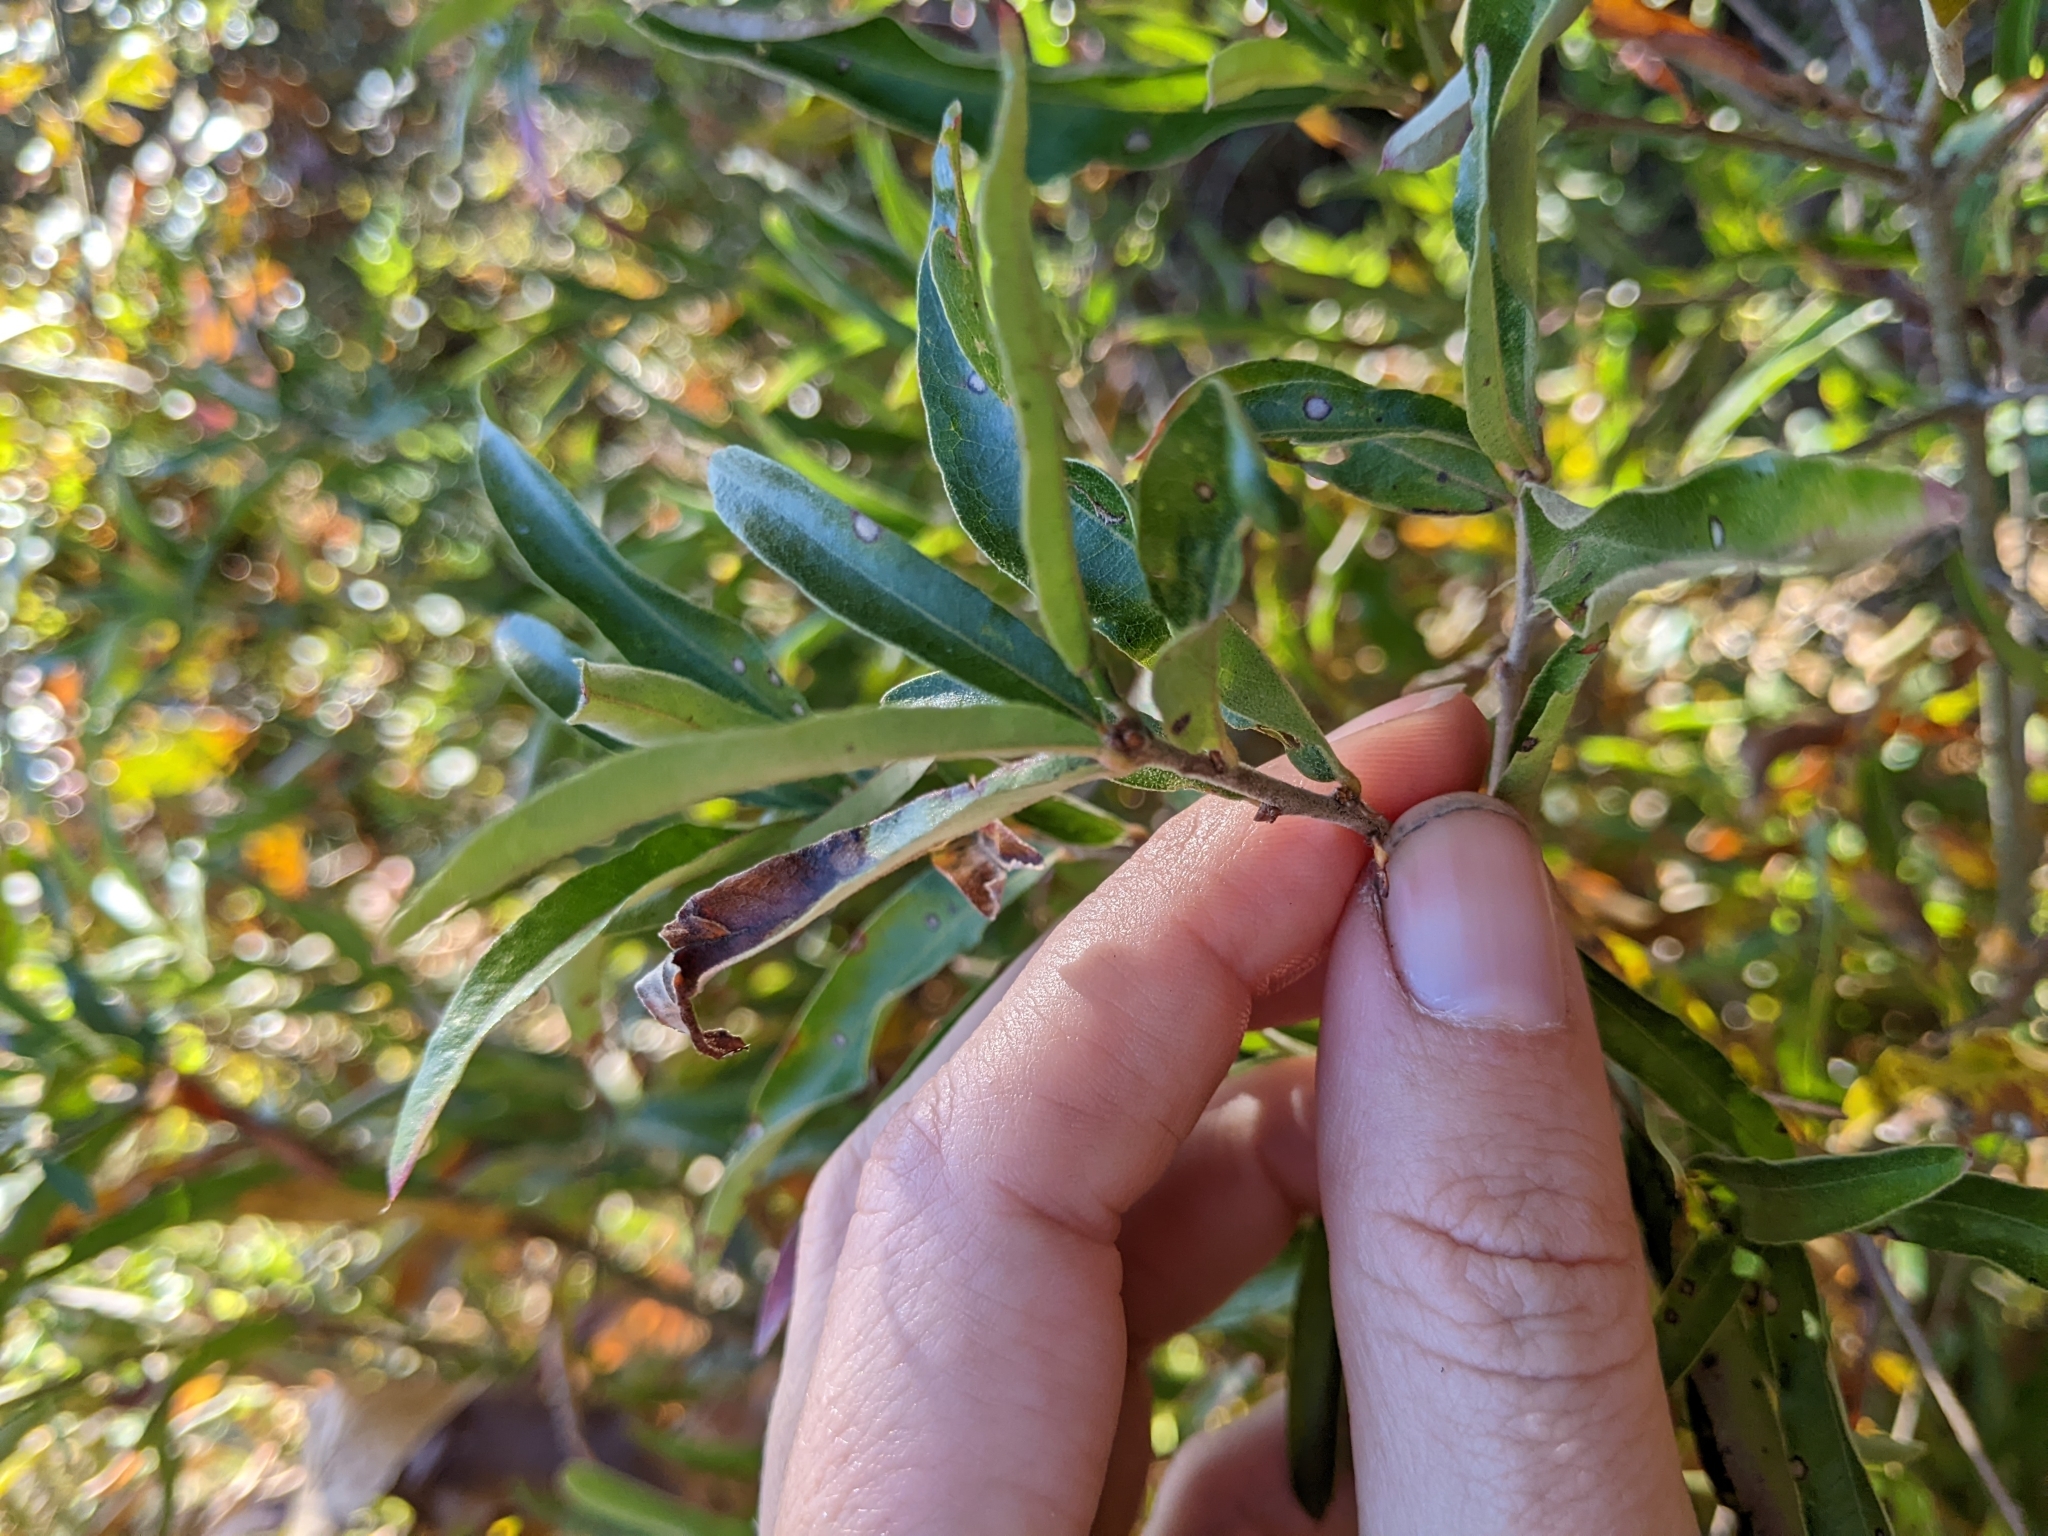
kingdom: Plantae
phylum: Tracheophyta
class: Magnoliopsida
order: Fagales
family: Fagaceae
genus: Quercus
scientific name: Quercus phellos
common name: Willow oak
